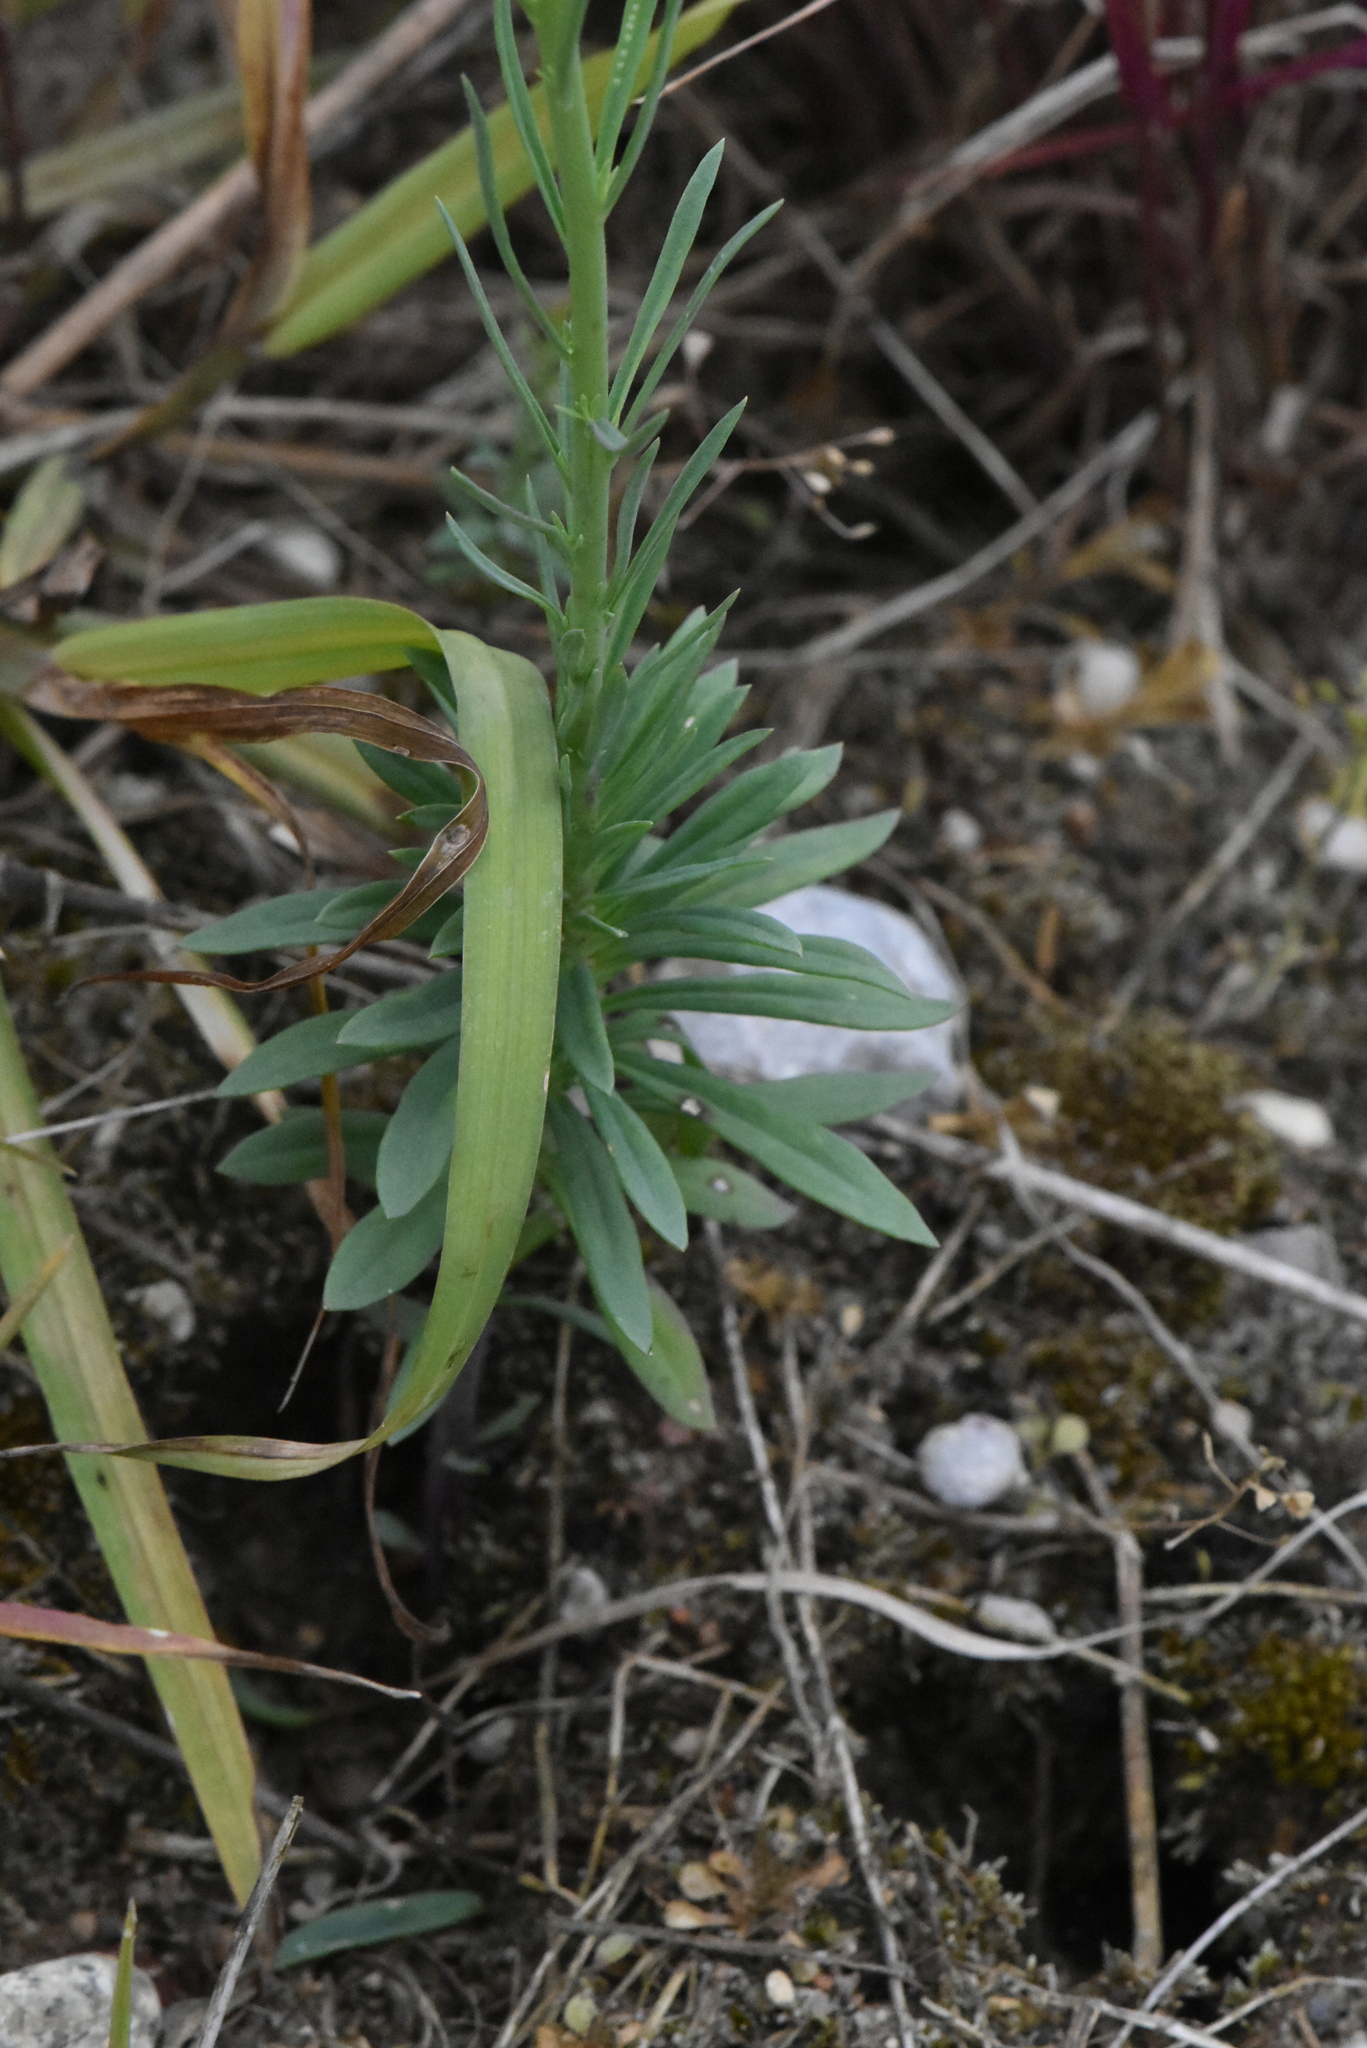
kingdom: Plantae
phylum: Tracheophyta
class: Magnoliopsida
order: Lamiales
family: Plantaginaceae
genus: Linaria
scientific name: Linaria vulgaris
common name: Butter and eggs
